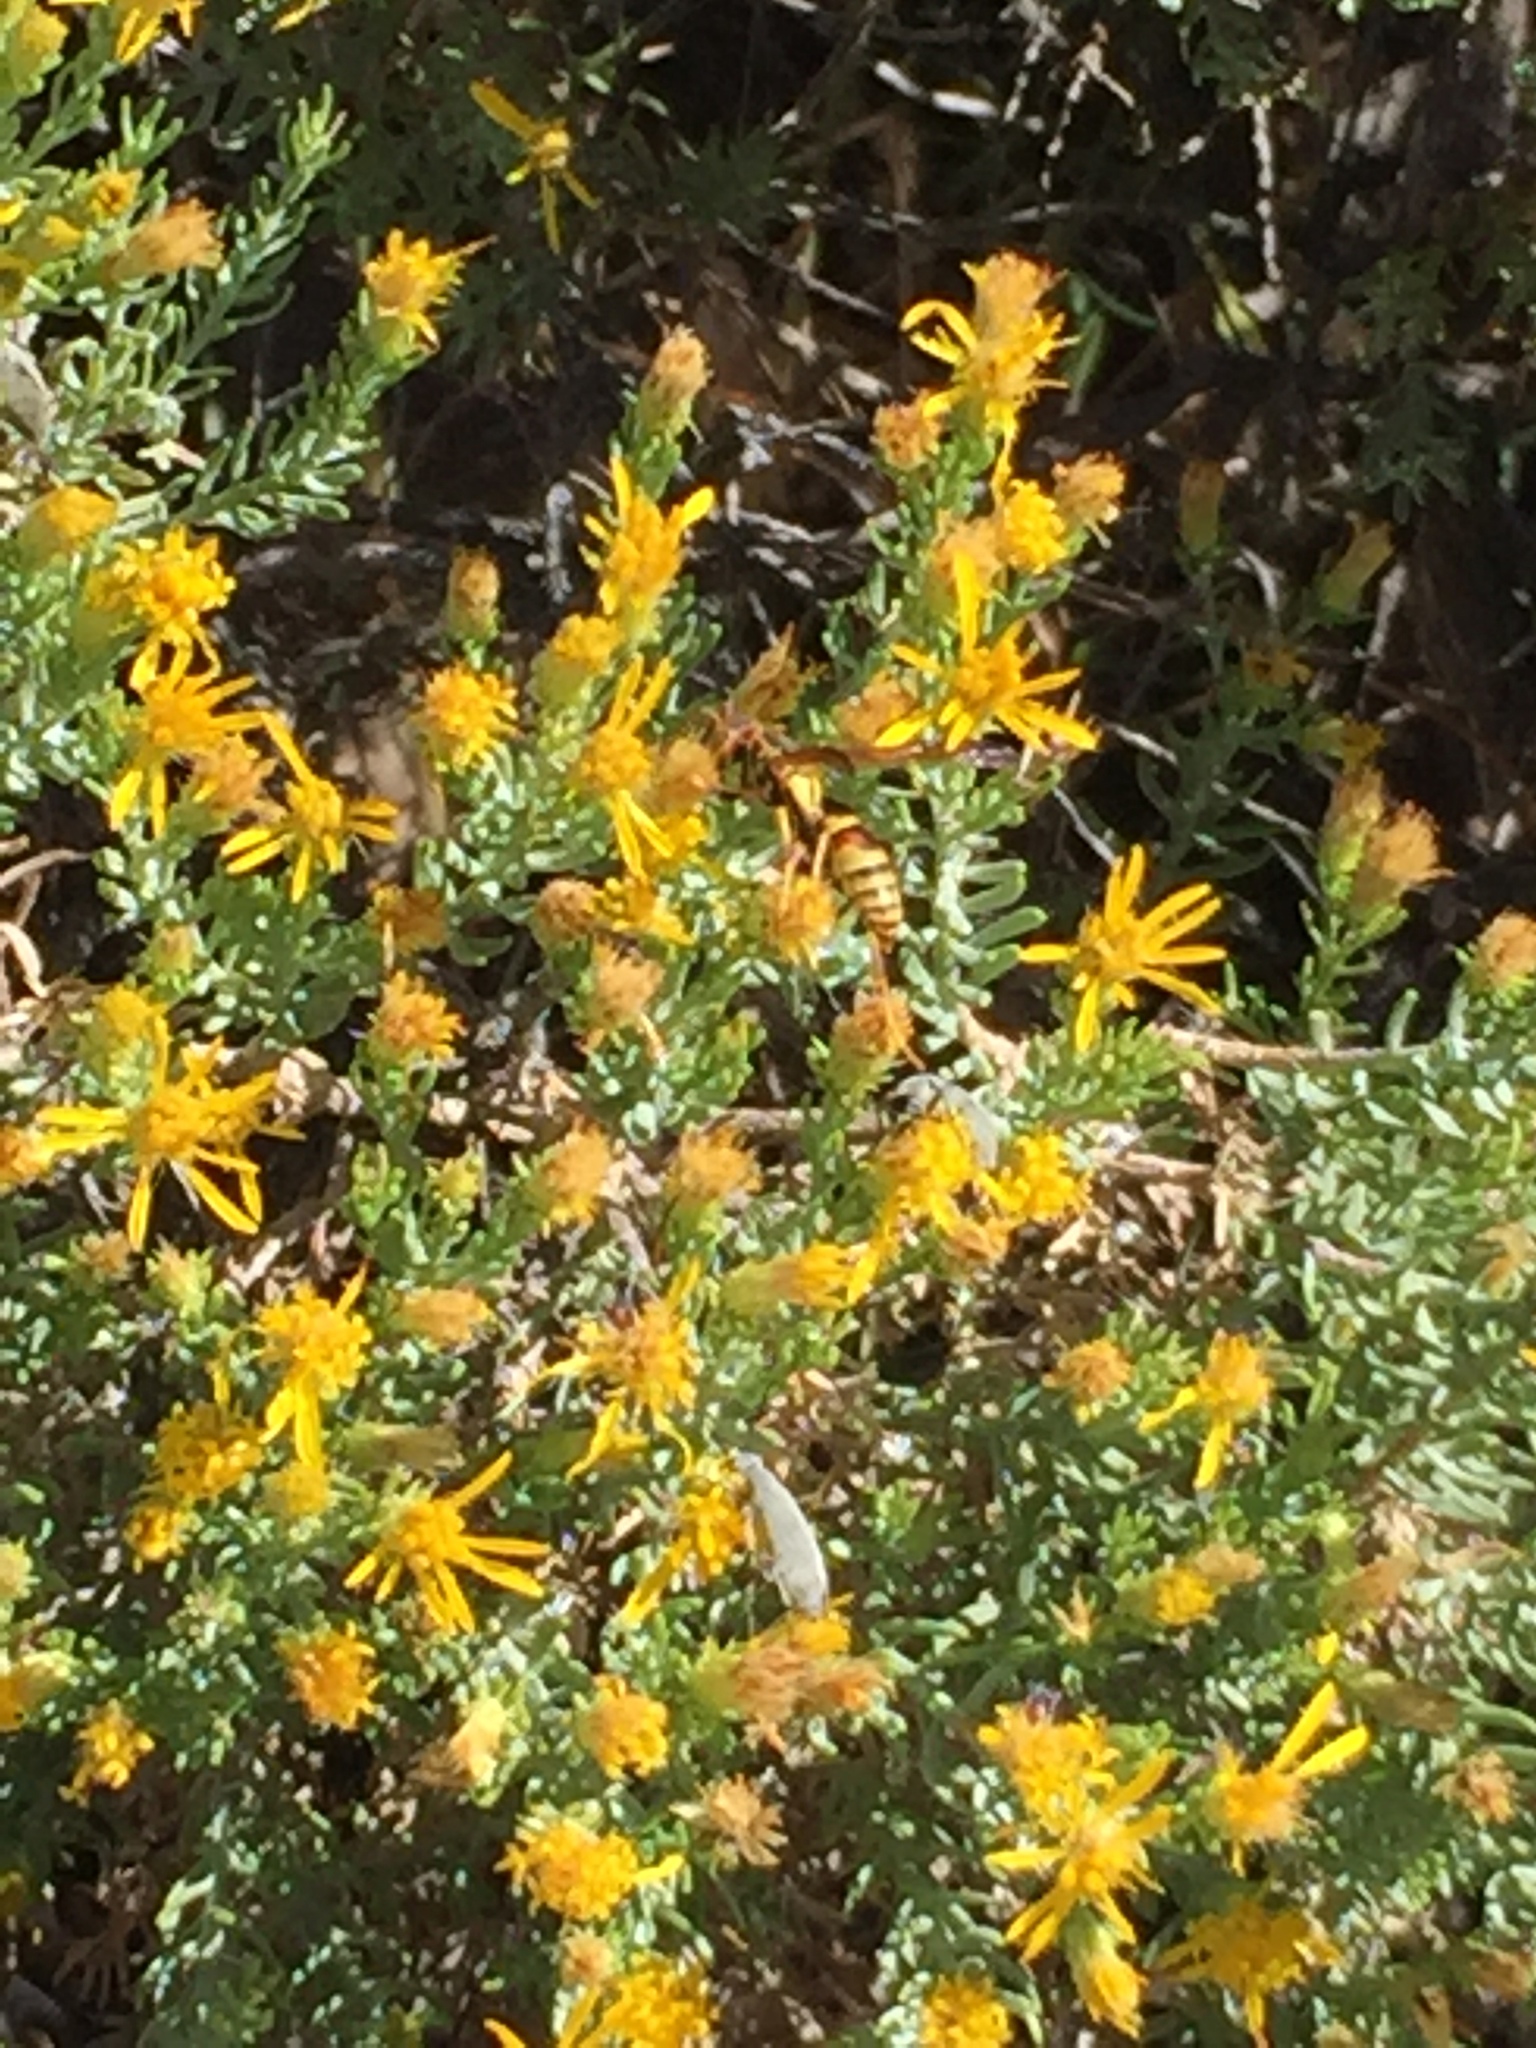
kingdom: Animalia
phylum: Arthropoda
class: Insecta
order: Hymenoptera
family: Eumenidae
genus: Polistes
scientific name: Polistes dorsalis
